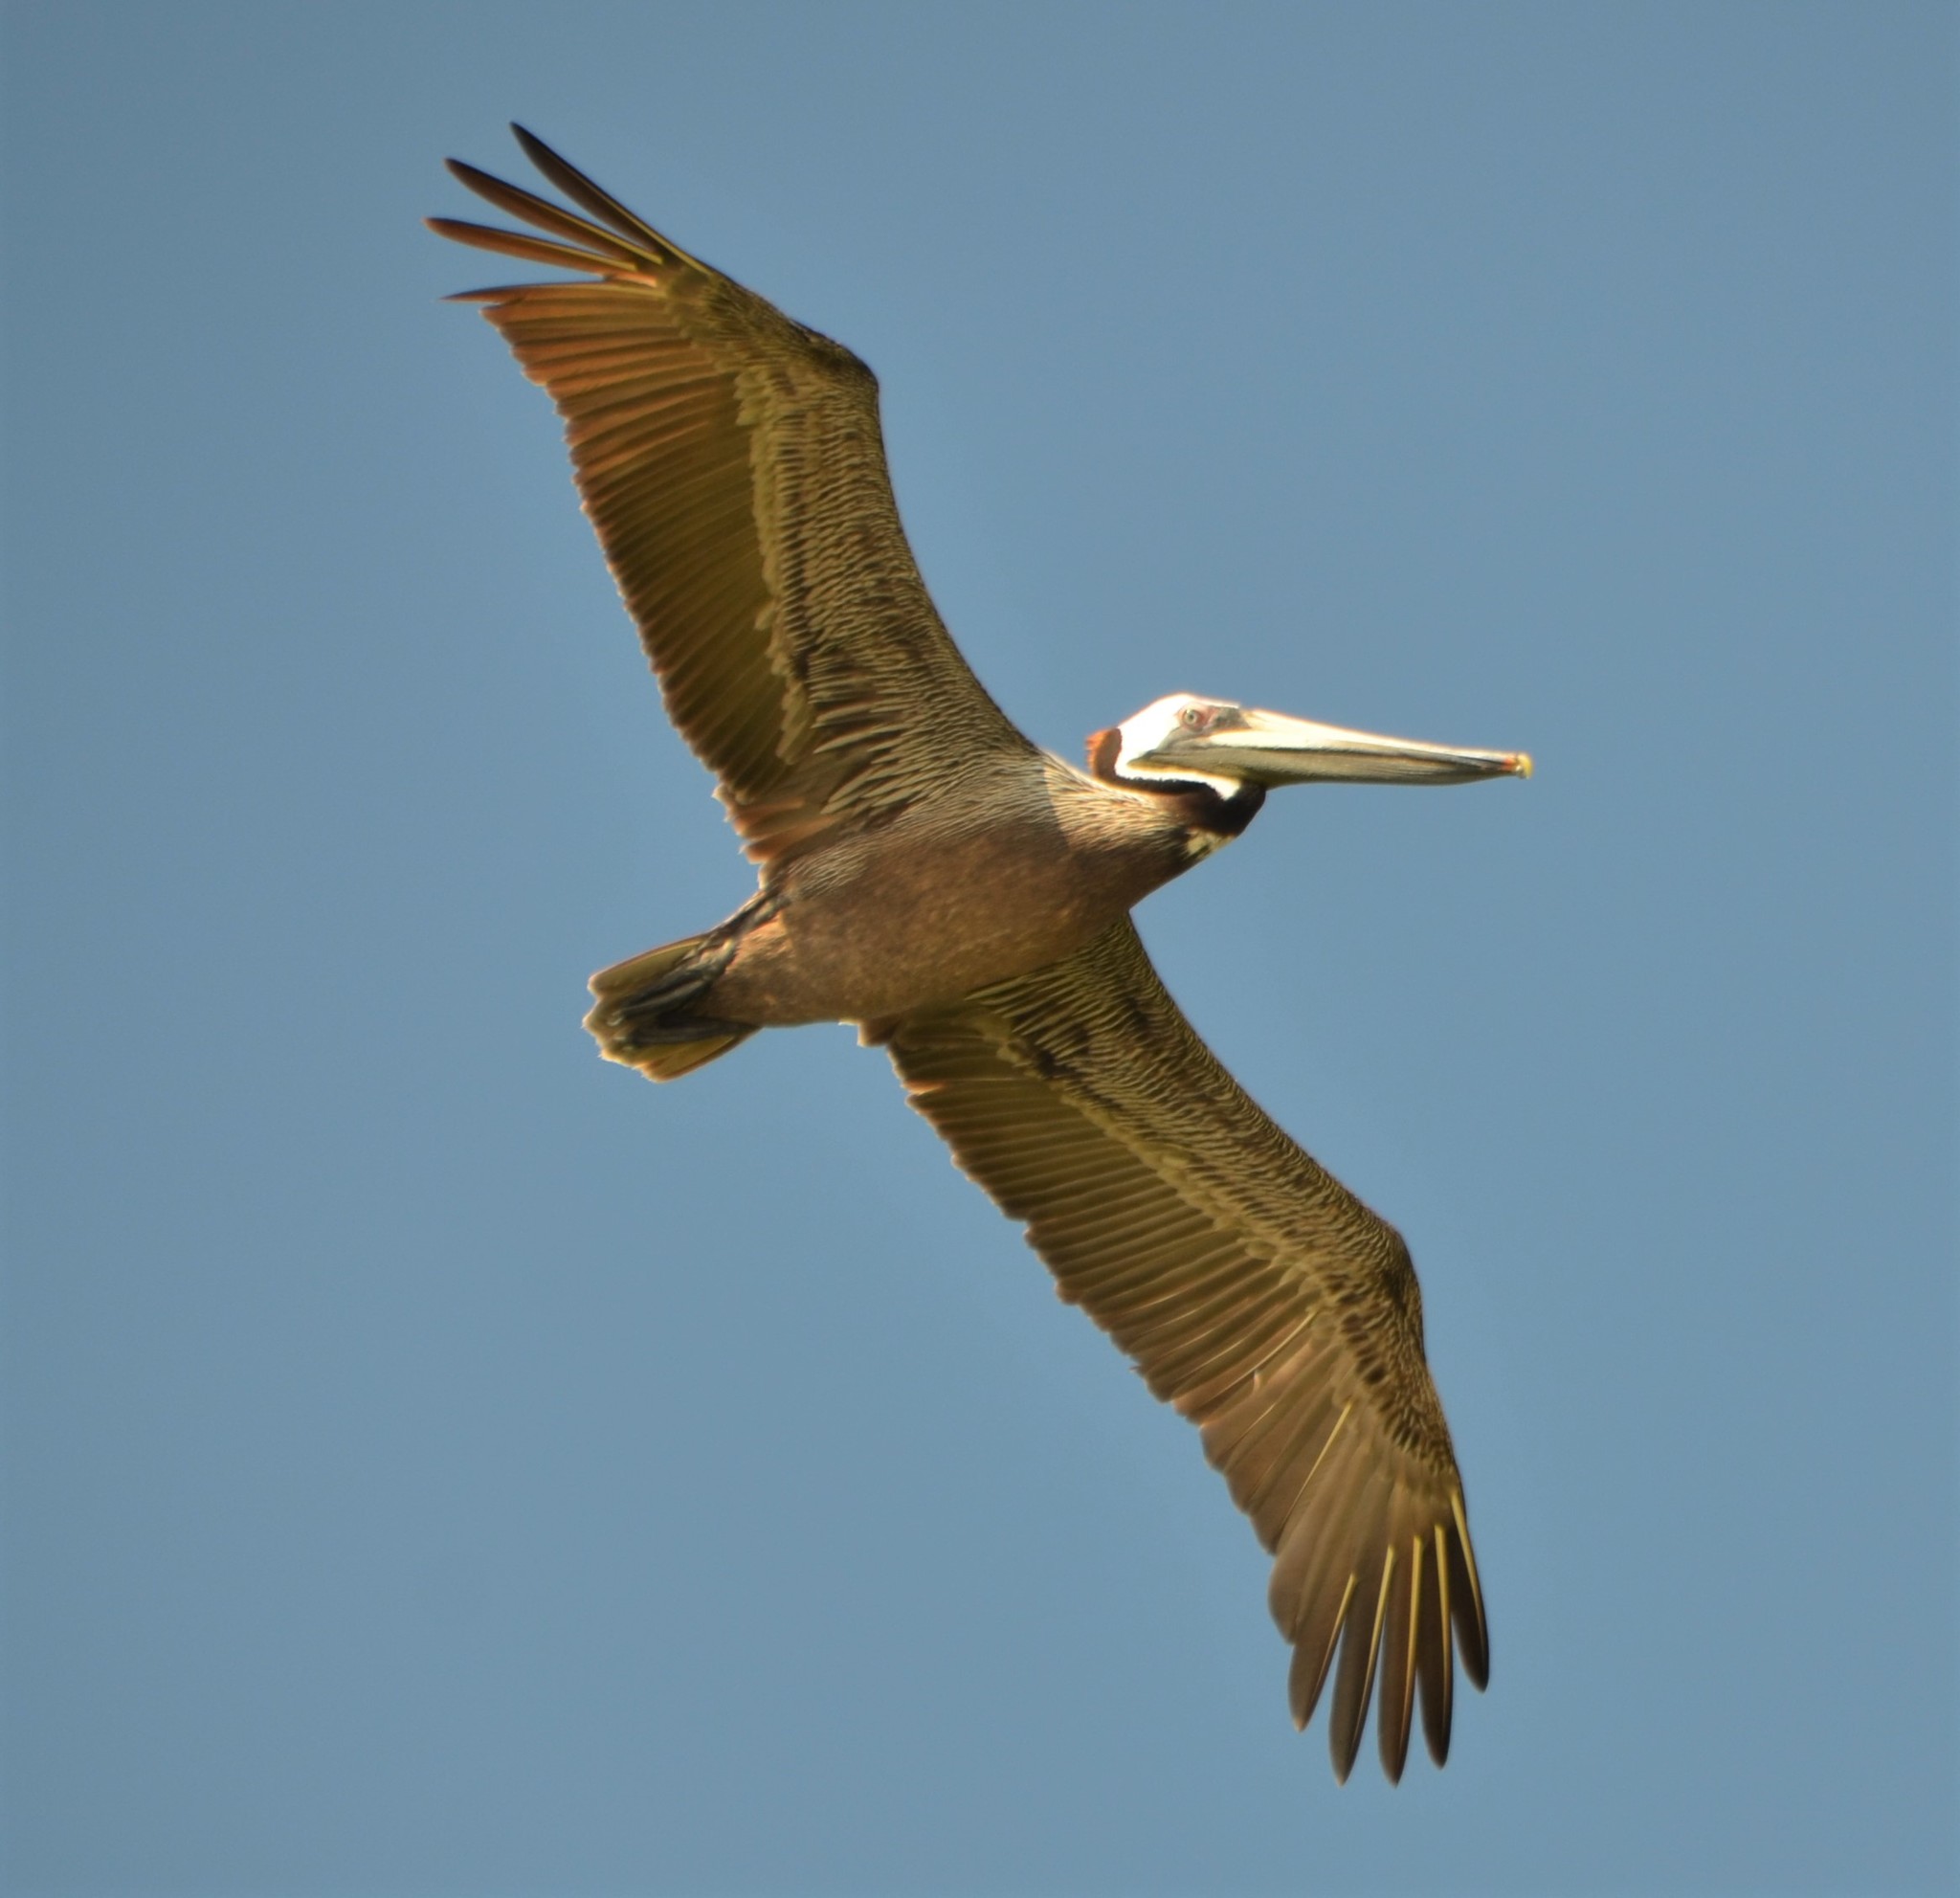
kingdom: Animalia
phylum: Chordata
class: Aves
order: Pelecaniformes
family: Pelecanidae
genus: Pelecanus
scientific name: Pelecanus occidentalis
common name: Brown pelican
